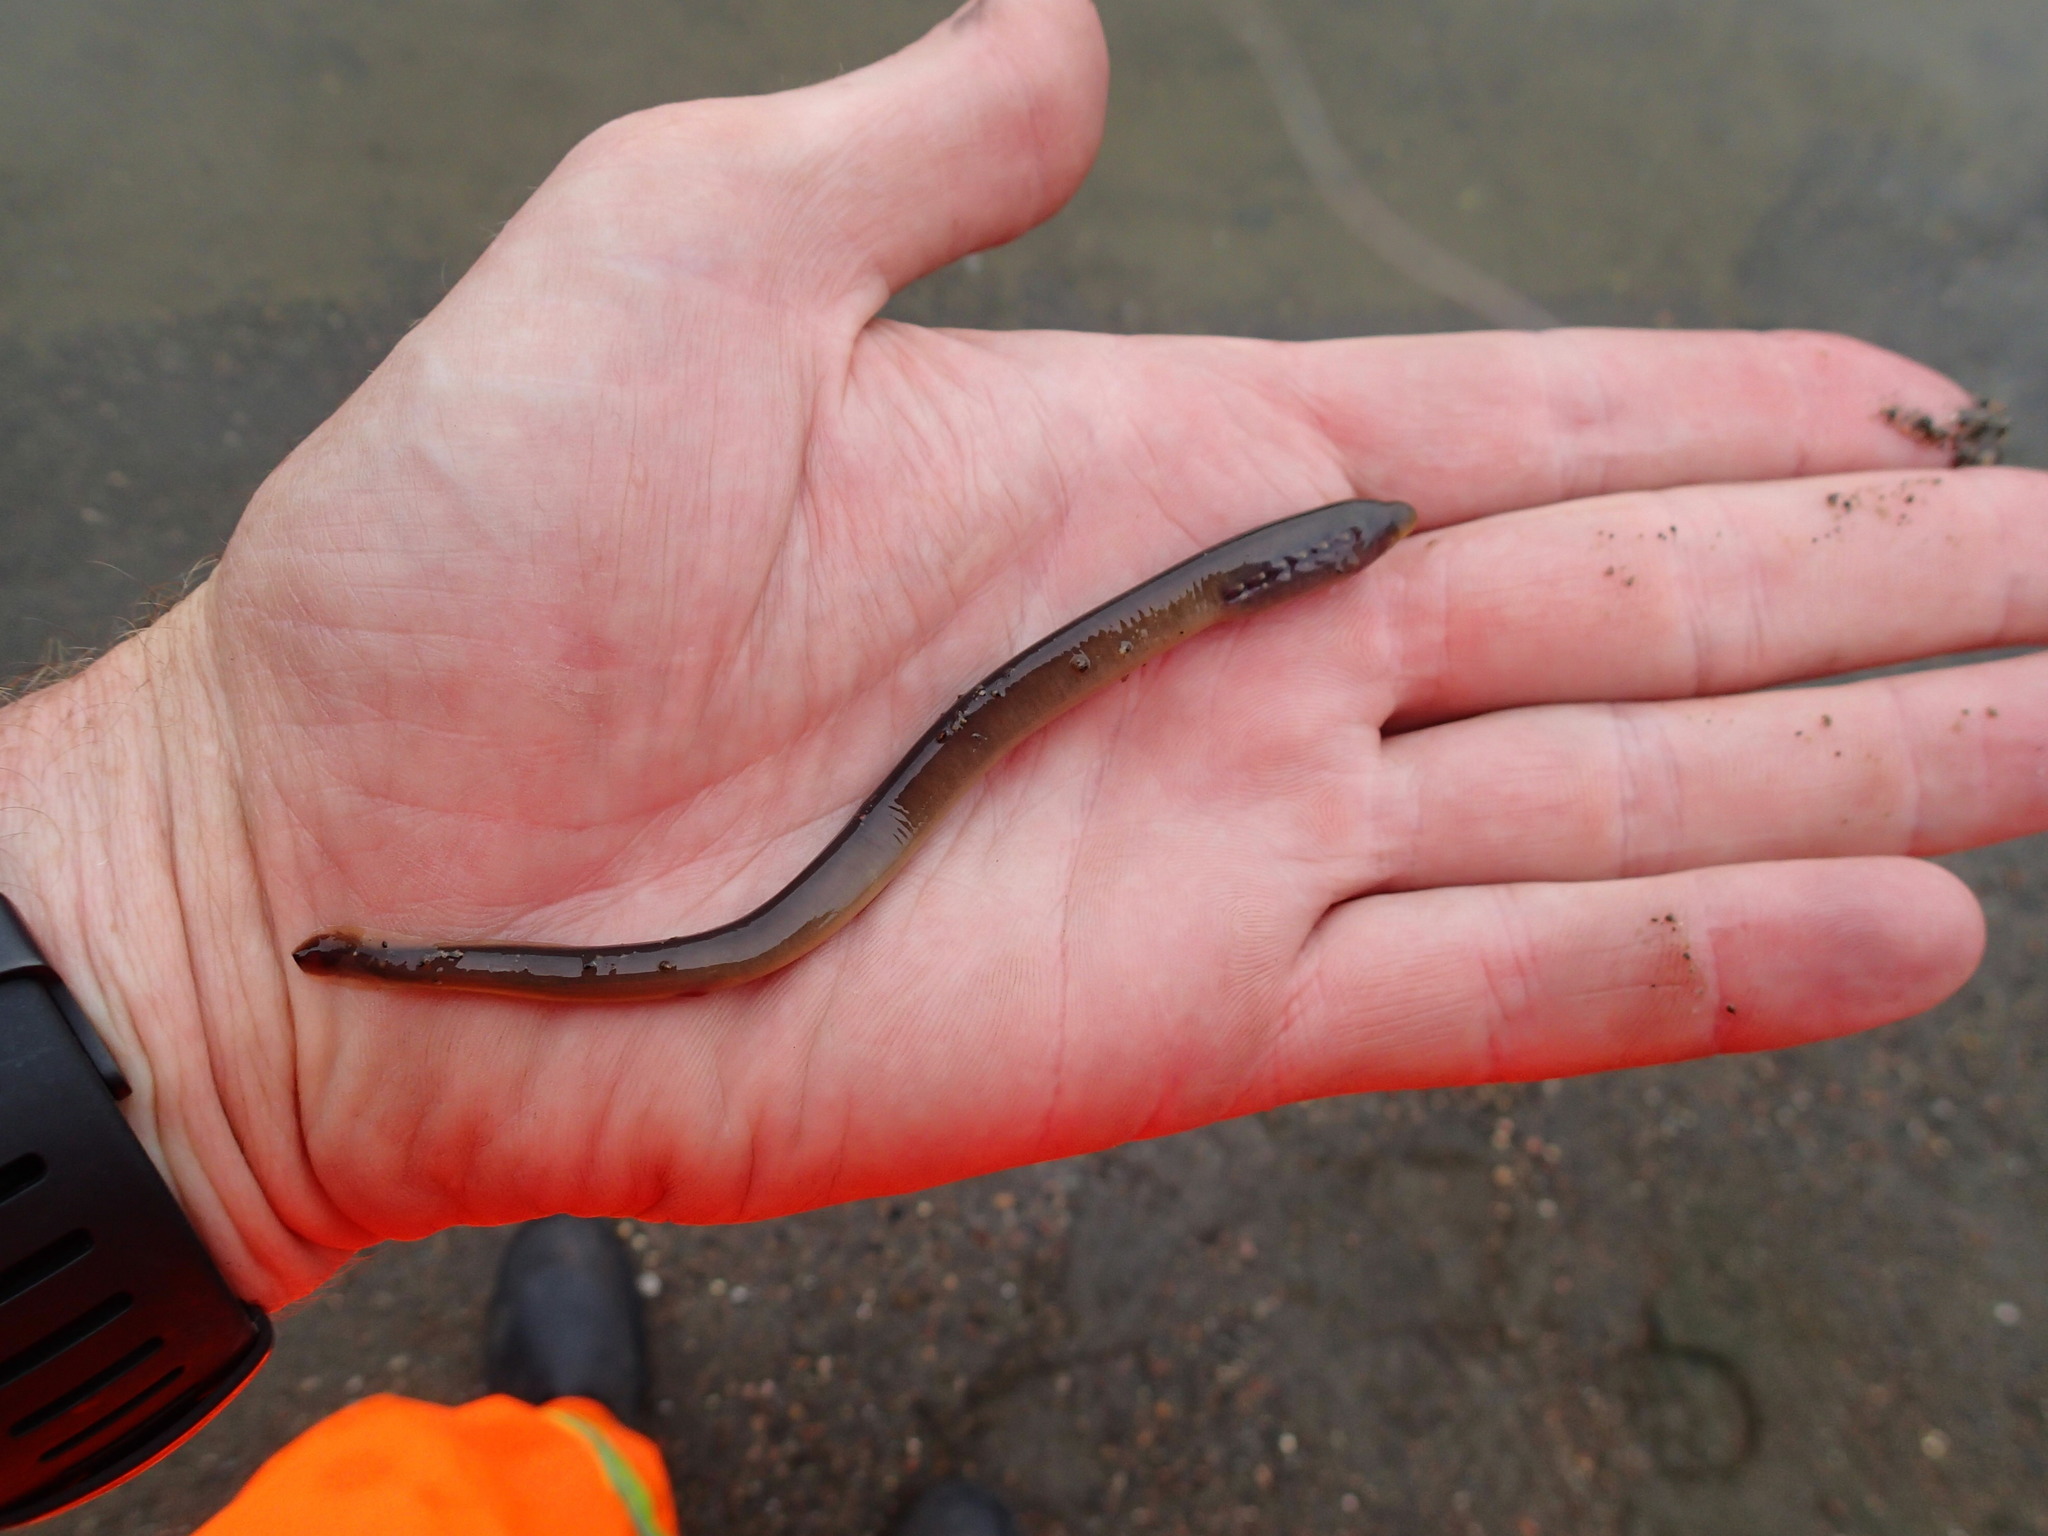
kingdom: Animalia
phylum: Chordata
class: Petromyzonti
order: Petromyzontiformes
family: Petromyzontidae
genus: Petromyzon
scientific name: Petromyzon marinus
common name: Sea lamprey
